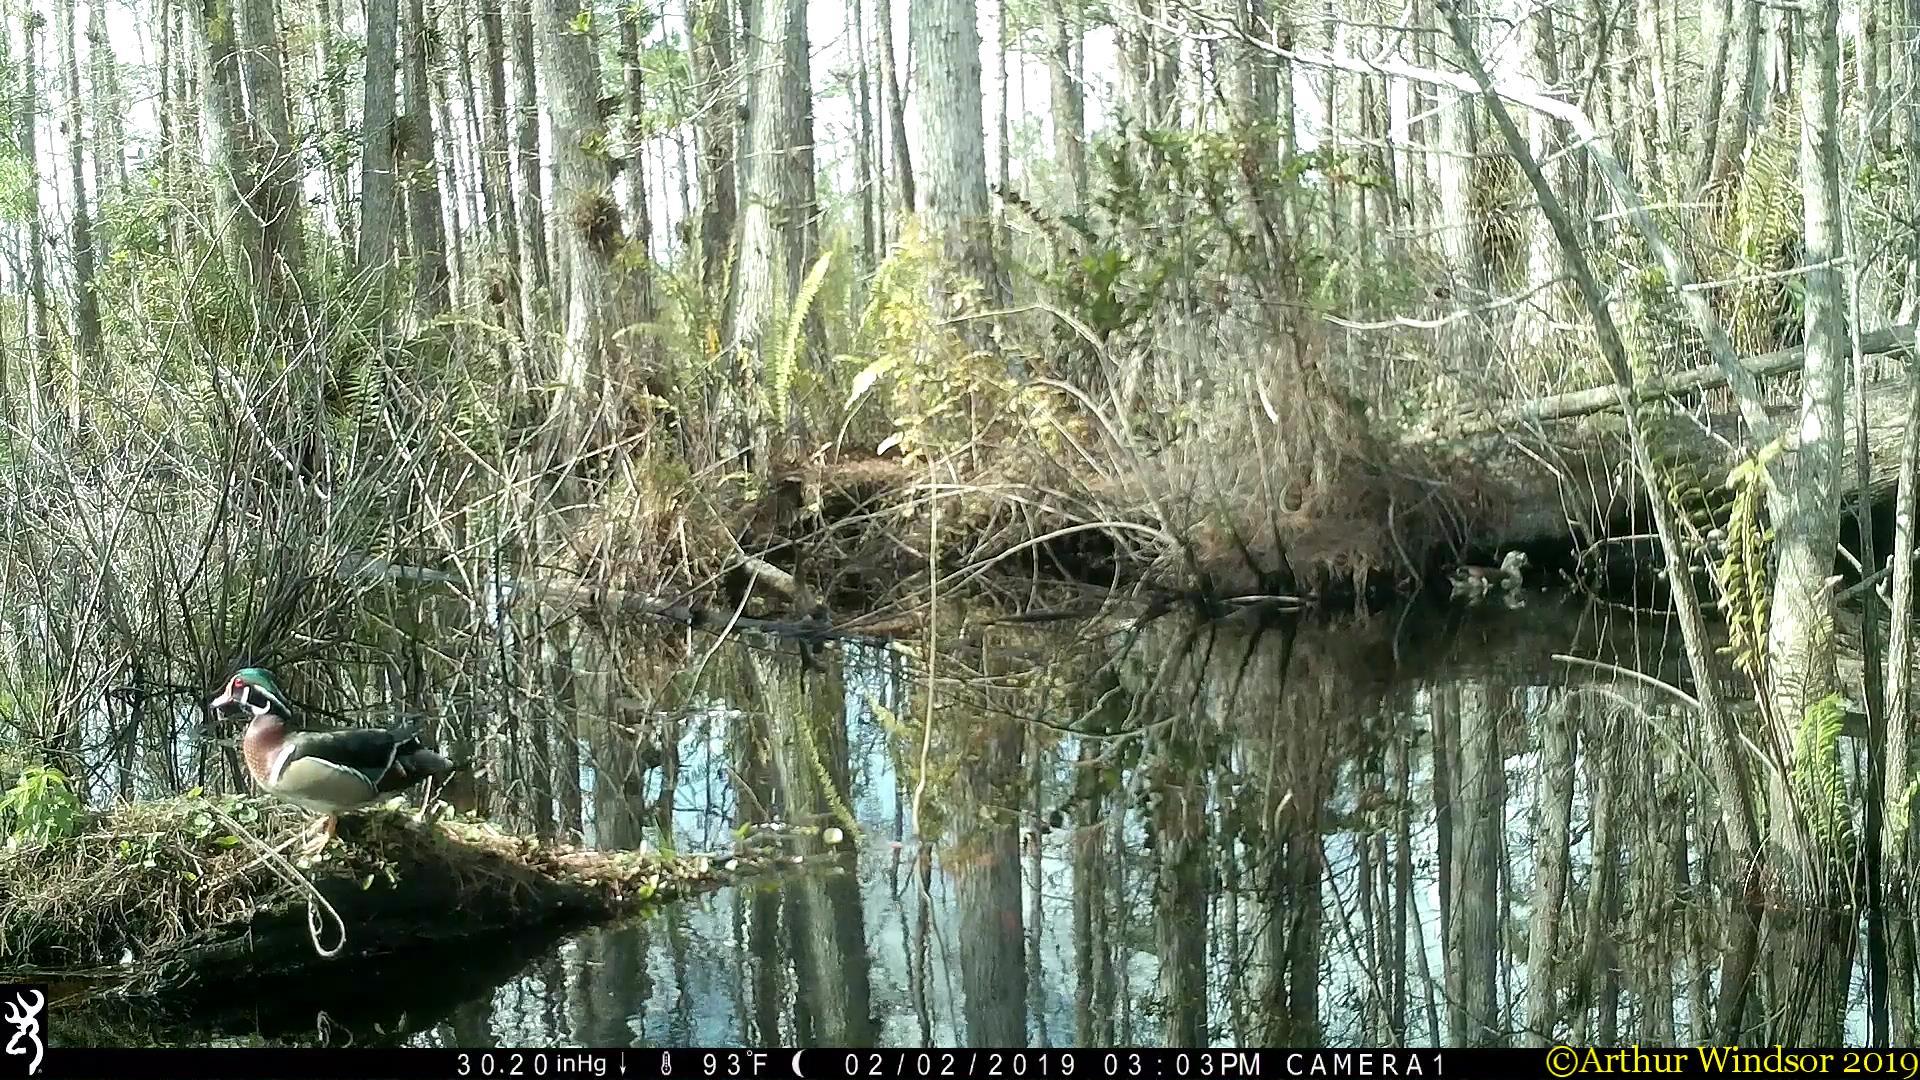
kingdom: Animalia
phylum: Chordata
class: Aves
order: Anseriformes
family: Anatidae
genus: Aix
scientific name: Aix sponsa
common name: Wood duck
